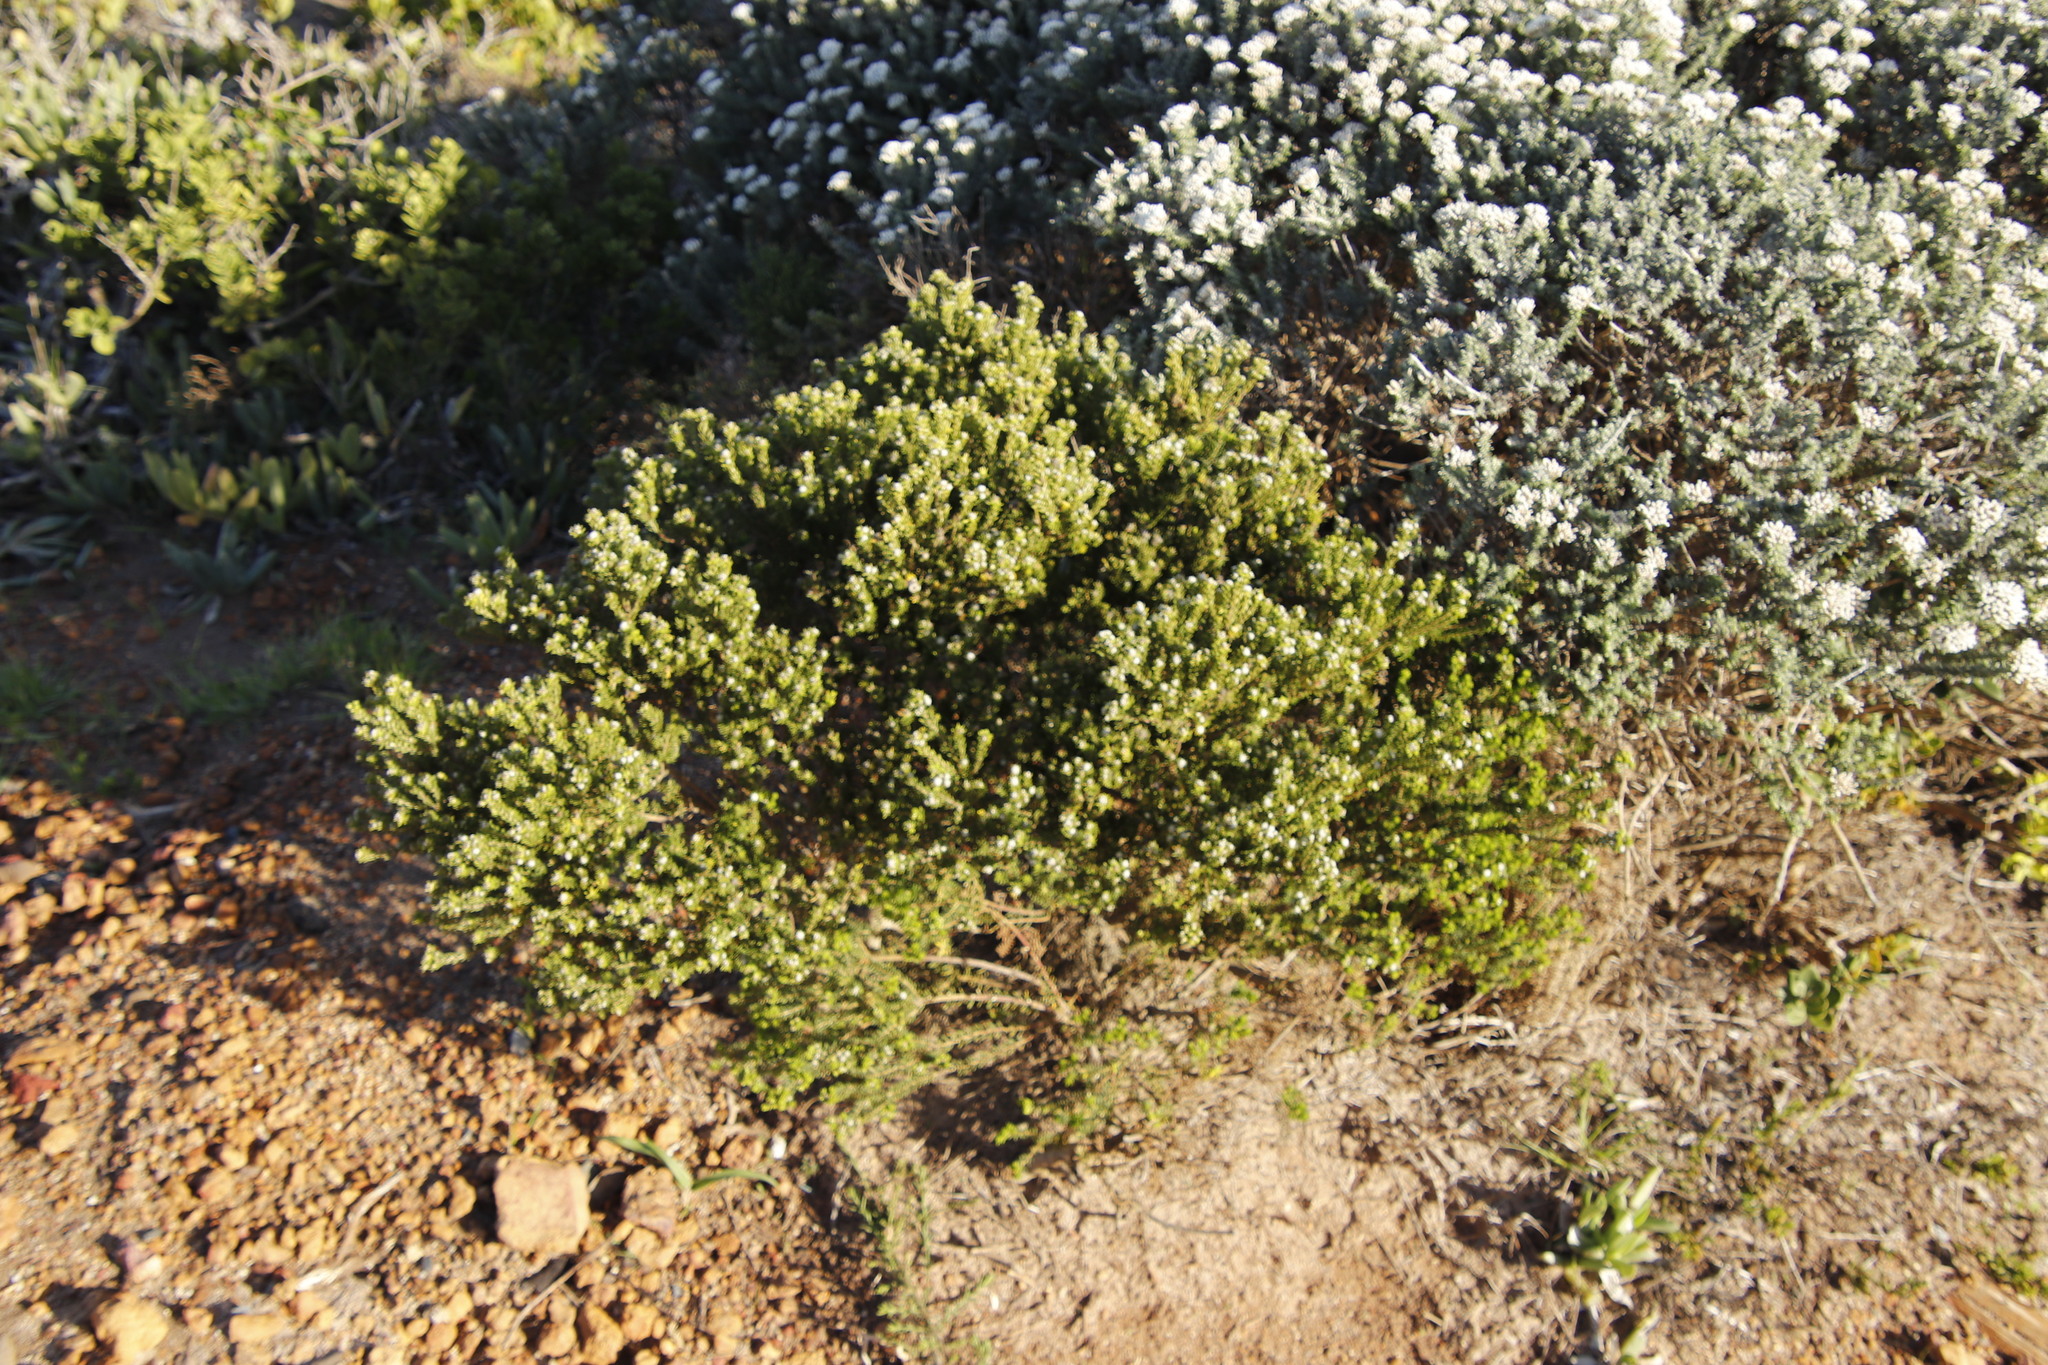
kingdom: Plantae
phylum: Tracheophyta
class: Magnoliopsida
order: Rosales
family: Rhamnaceae
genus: Phylica
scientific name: Phylica ericoides
